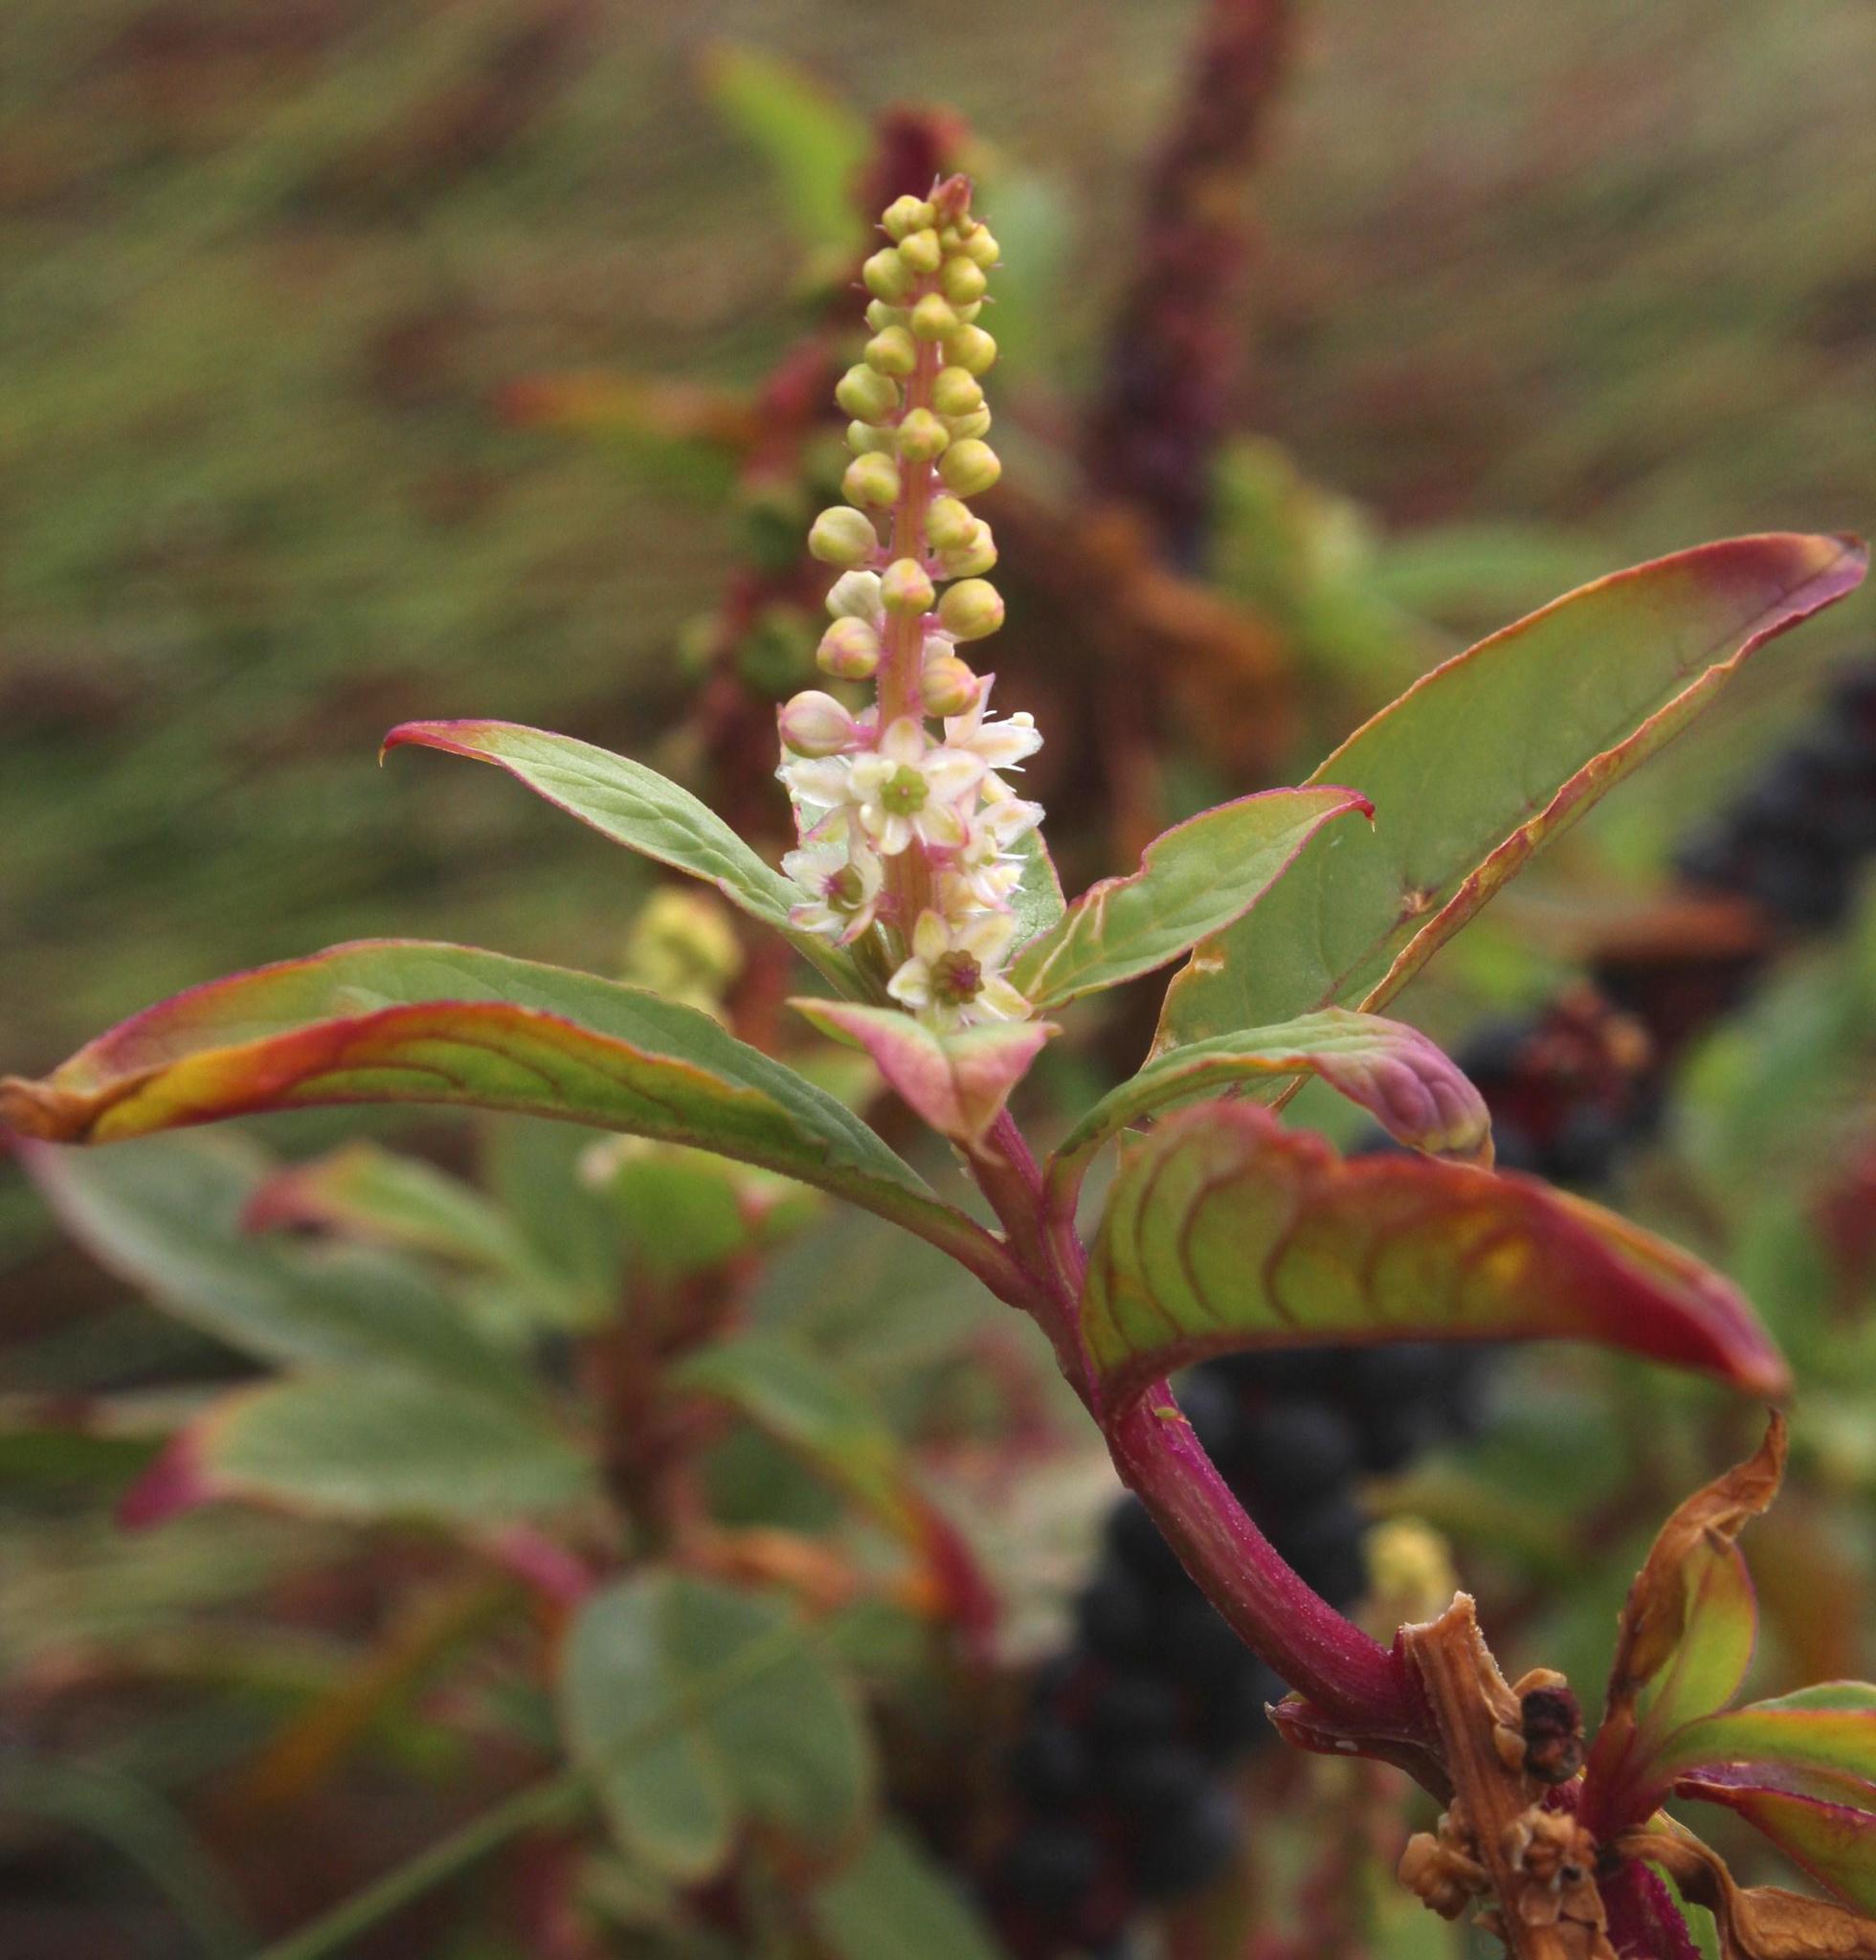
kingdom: Plantae
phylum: Tracheophyta
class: Magnoliopsida
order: Caryophyllales
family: Phytolaccaceae
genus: Phytolacca
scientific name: Phytolacca icosandra
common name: Button pokeweed
